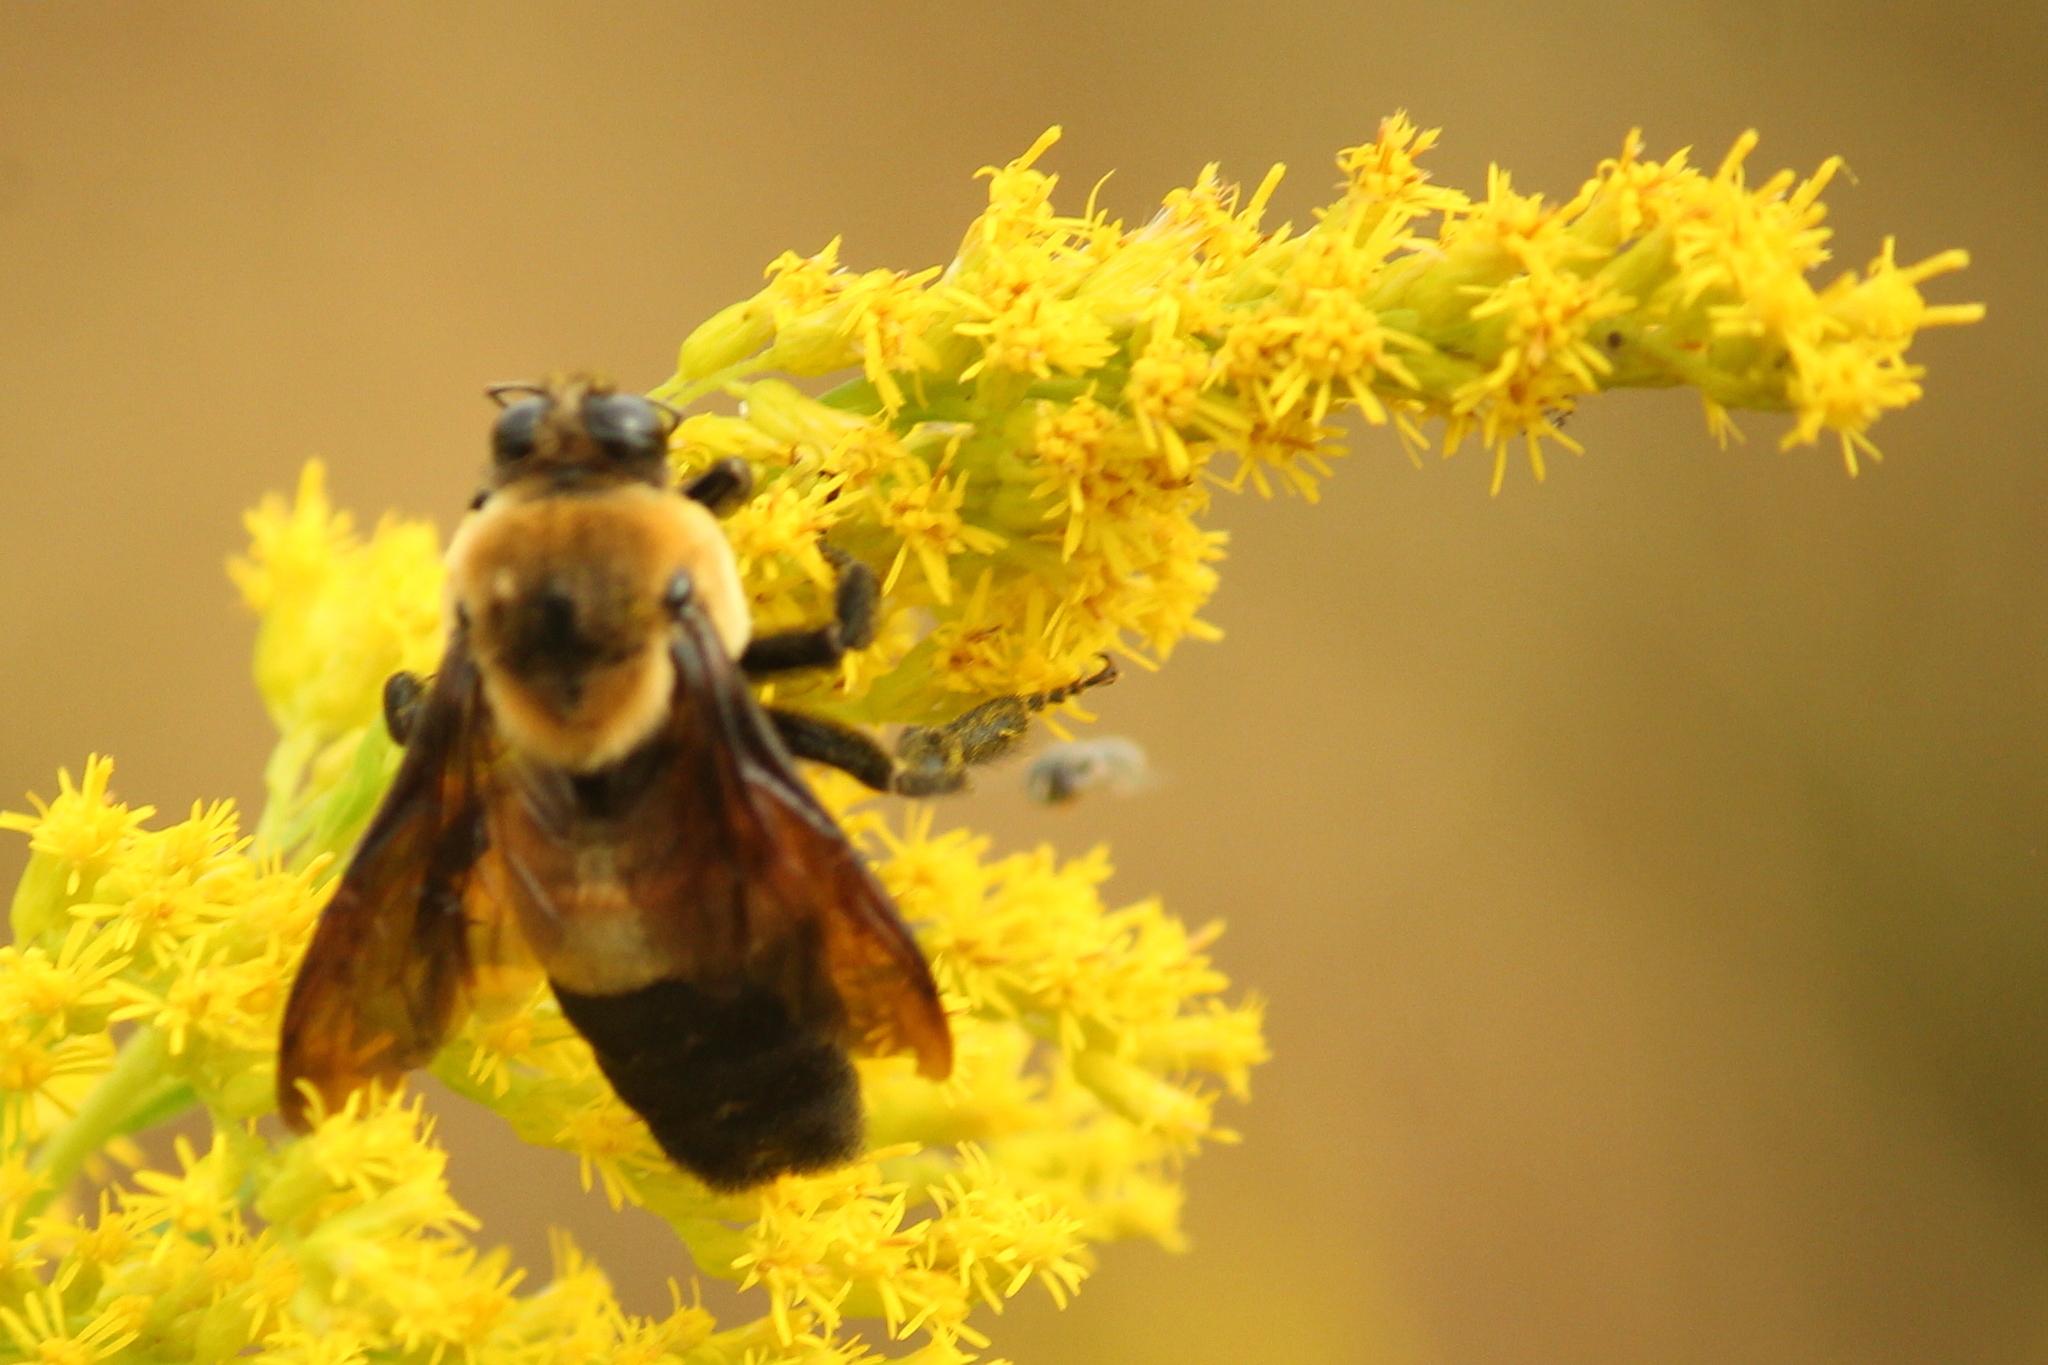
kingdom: Animalia
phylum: Arthropoda
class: Insecta
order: Hymenoptera
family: Apidae
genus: Bombus
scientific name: Bombus fraternus
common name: Southern plains bumble bee
